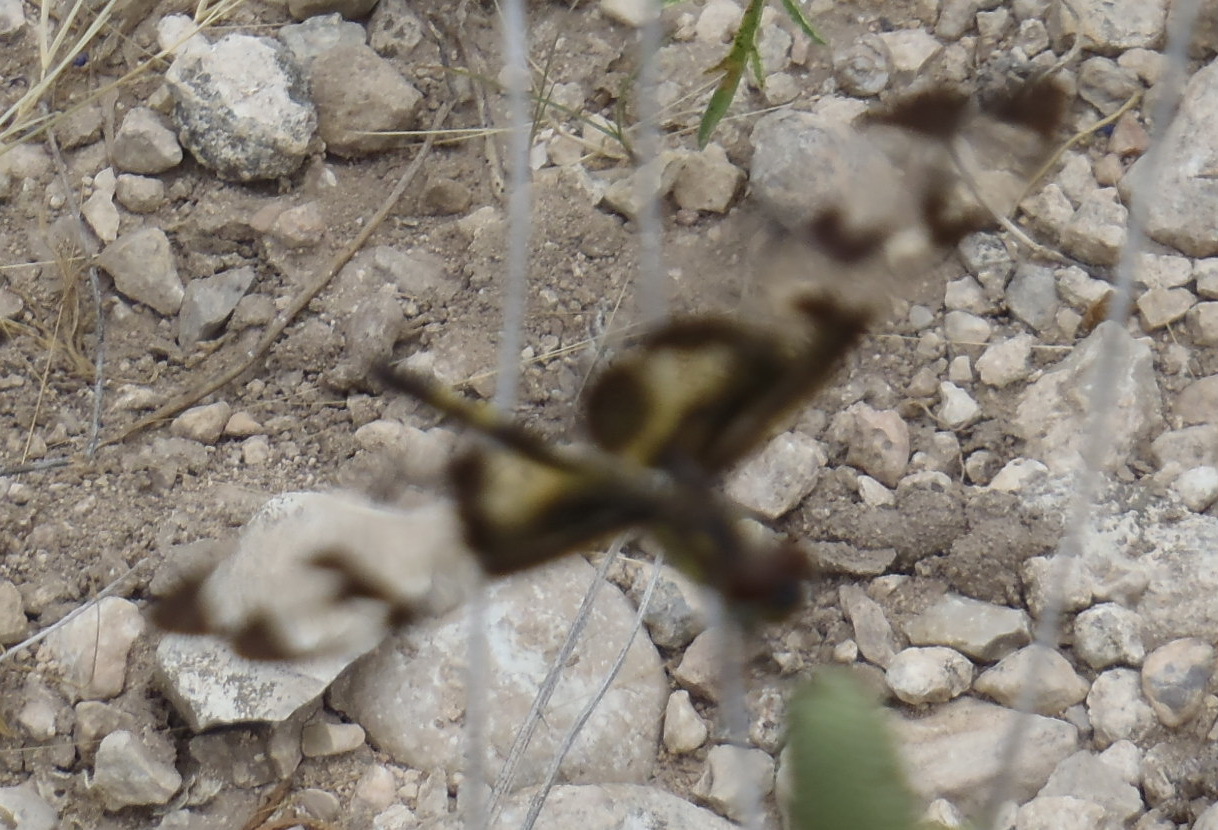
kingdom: Animalia
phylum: Arthropoda
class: Insecta
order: Odonata
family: Libellulidae
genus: Celithemis
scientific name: Celithemis fasciata
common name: Banded pennant
